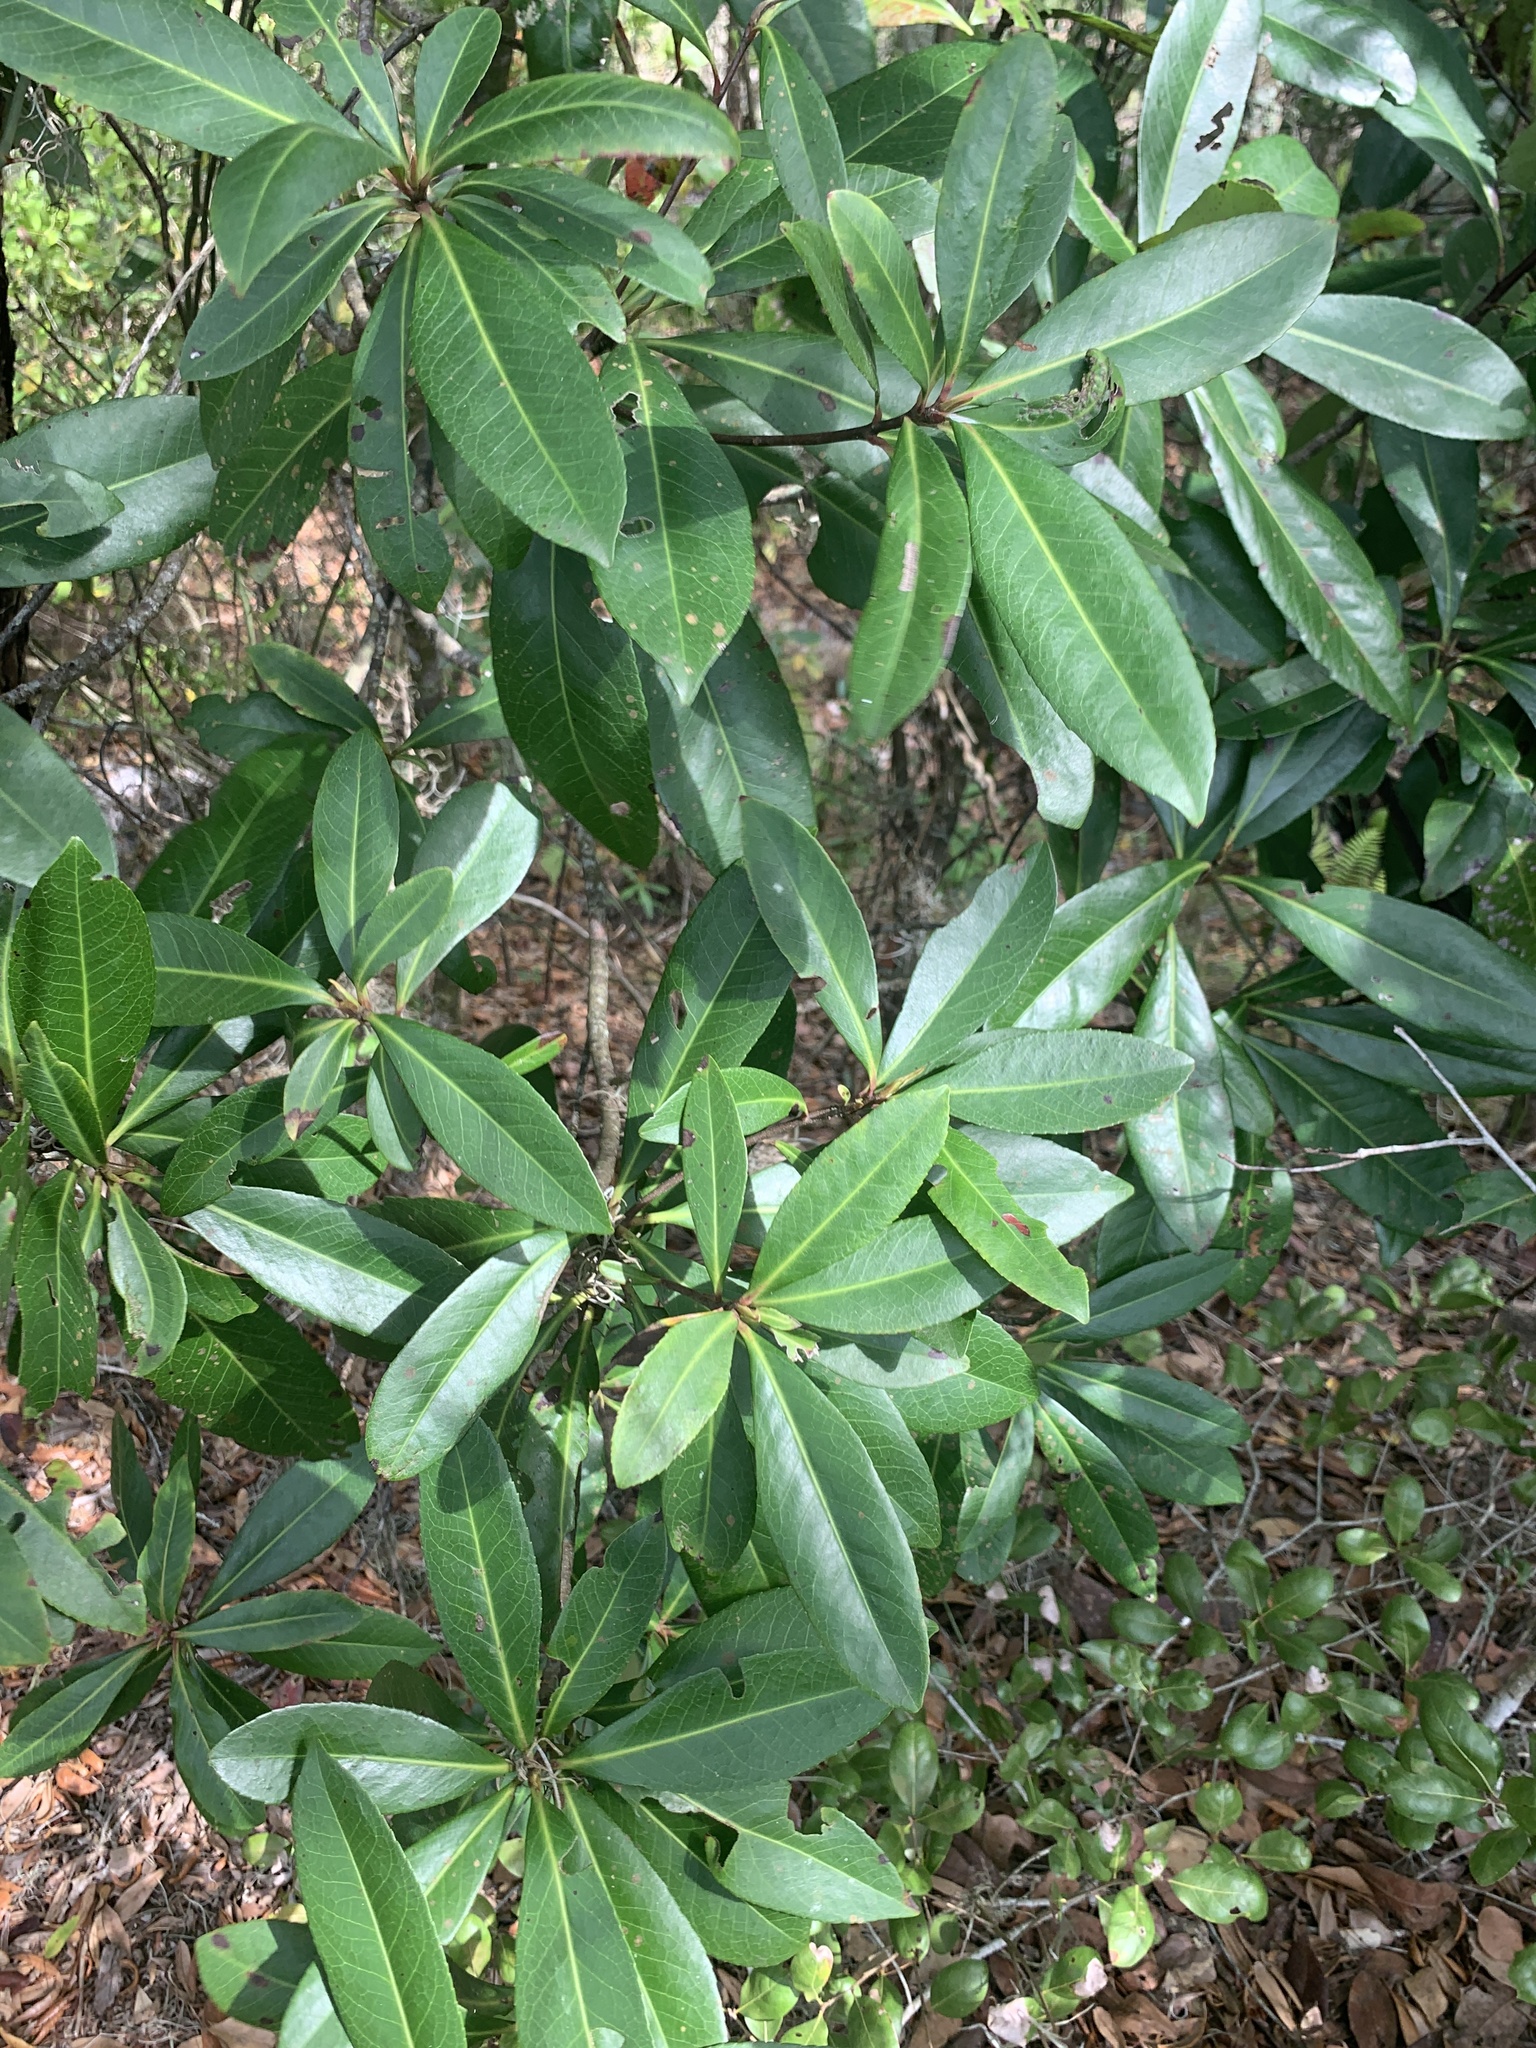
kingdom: Plantae
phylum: Tracheophyta
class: Magnoliopsida
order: Ericales
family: Theaceae
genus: Gordonia
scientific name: Gordonia lasianthus
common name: Loblolly bay
